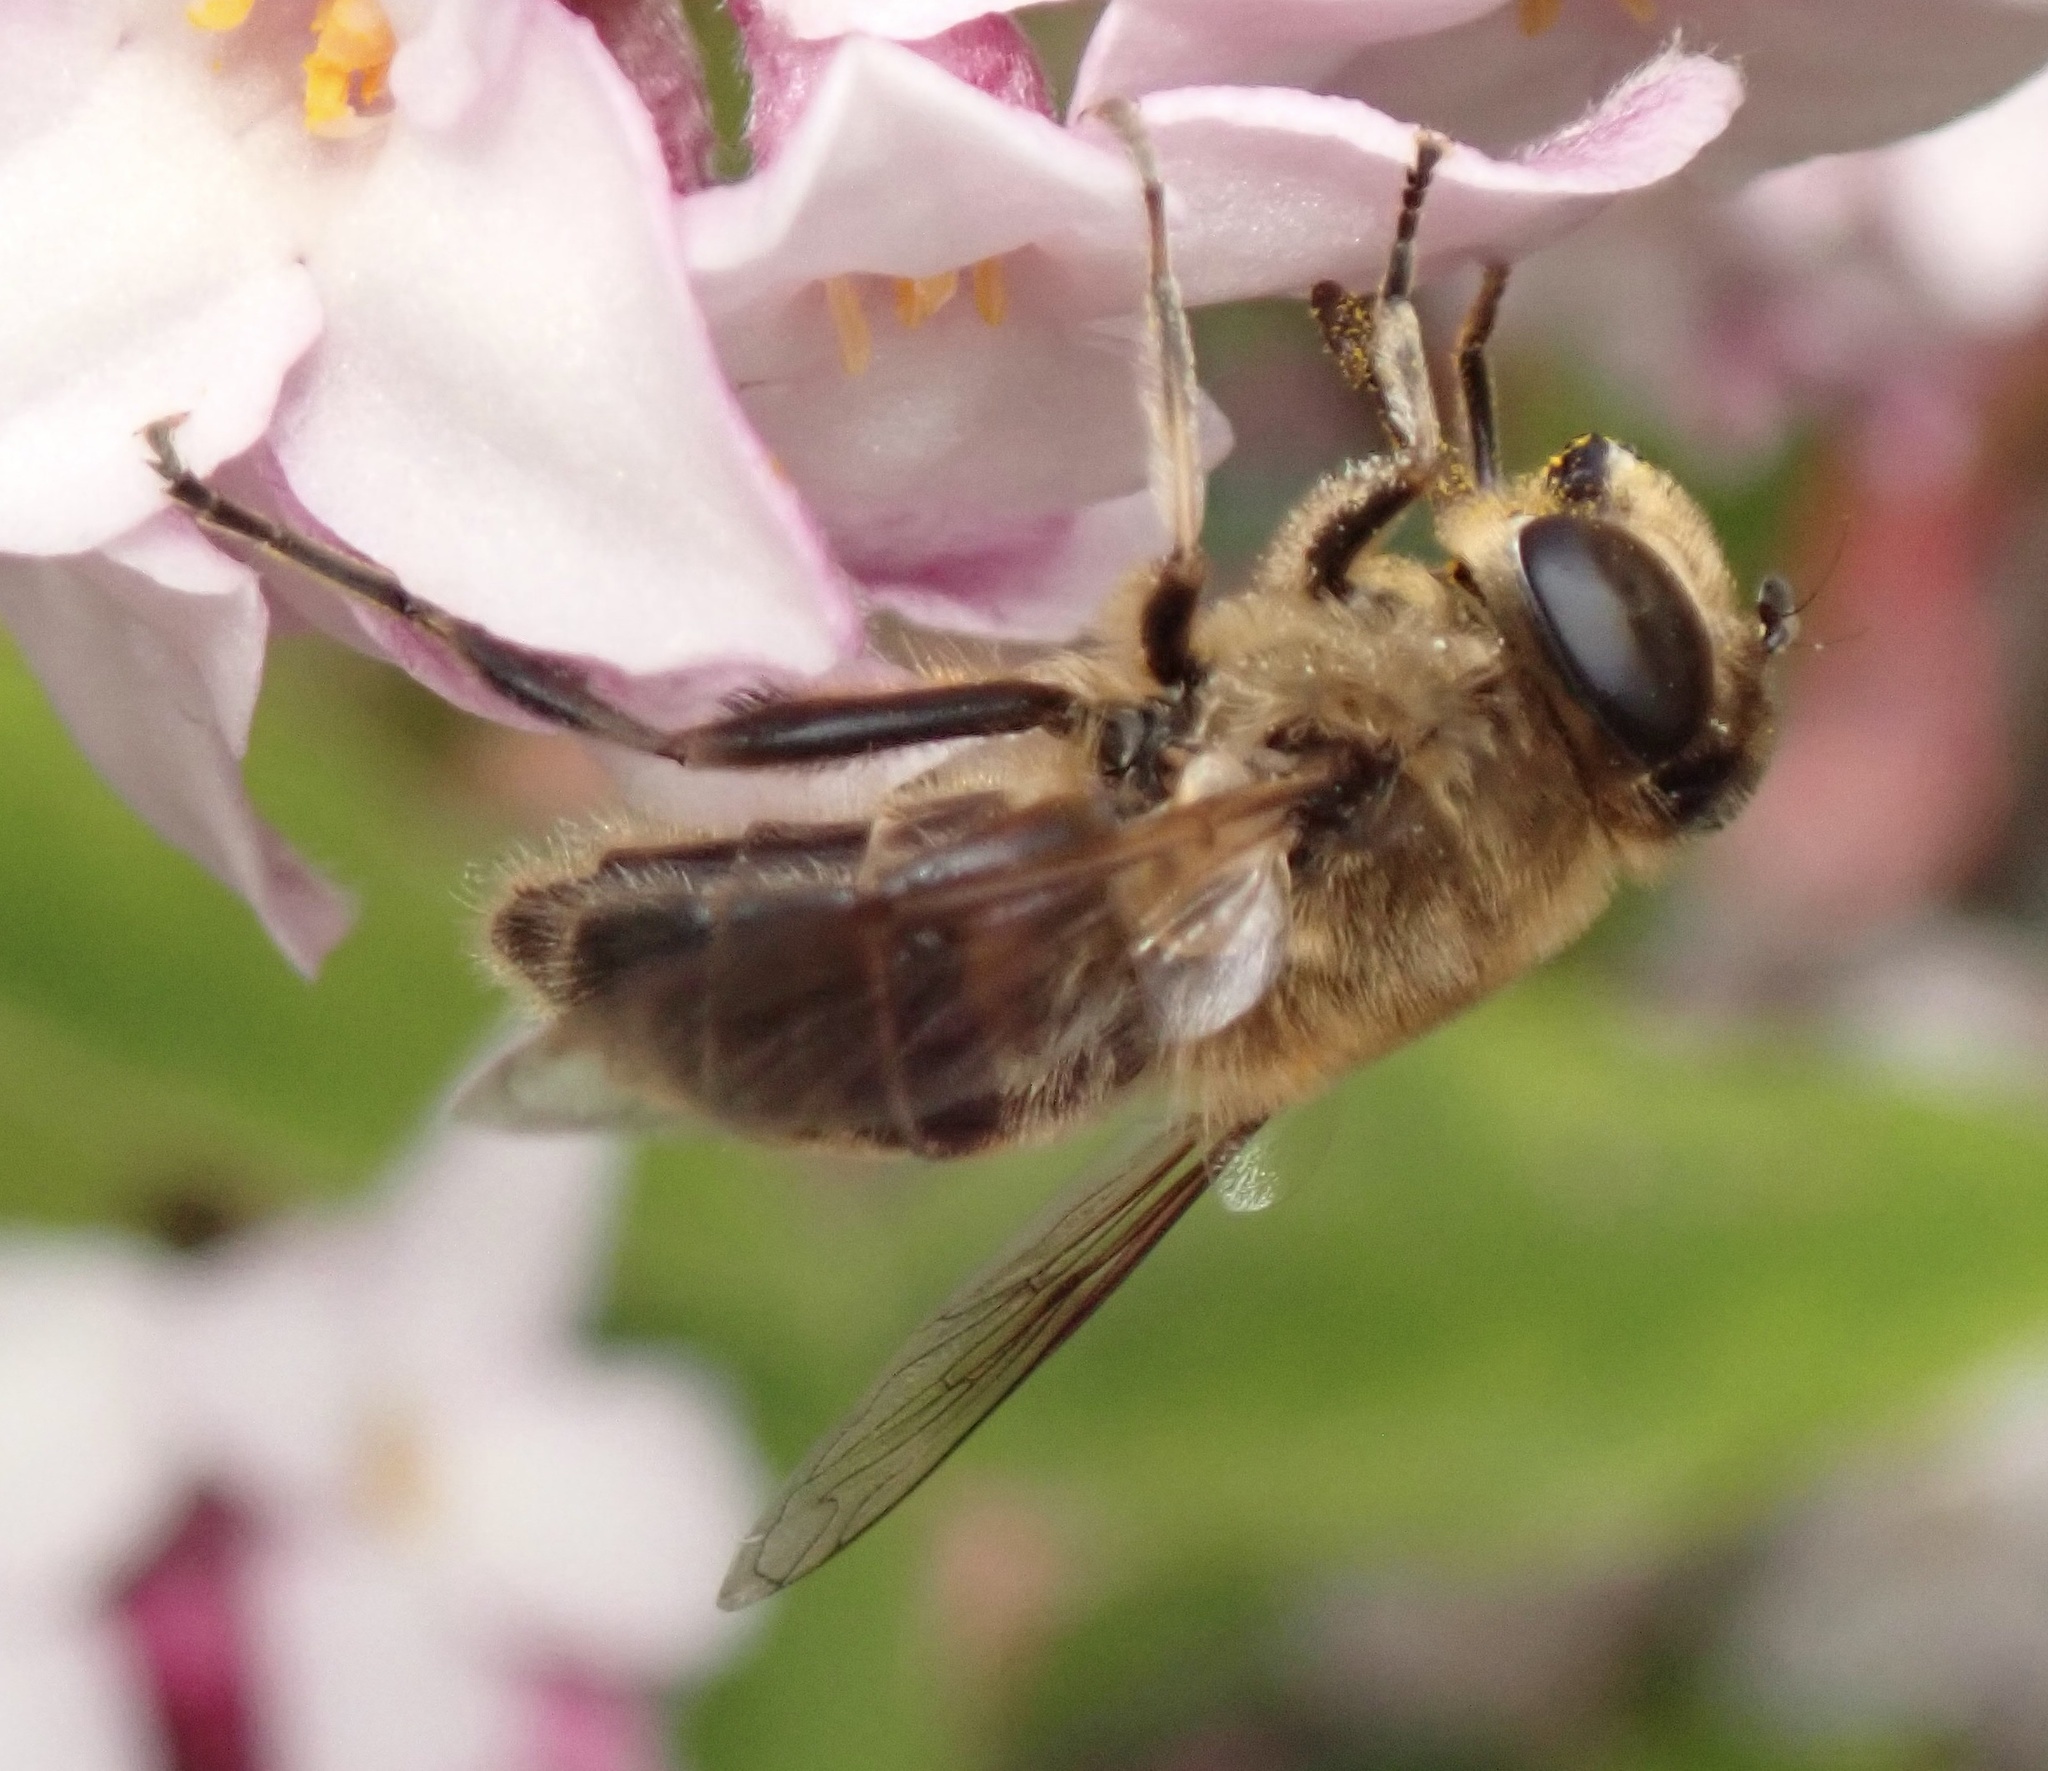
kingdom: Animalia
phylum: Arthropoda
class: Insecta
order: Diptera
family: Syrphidae
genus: Eristalis
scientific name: Eristalis tenax
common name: Drone fly
